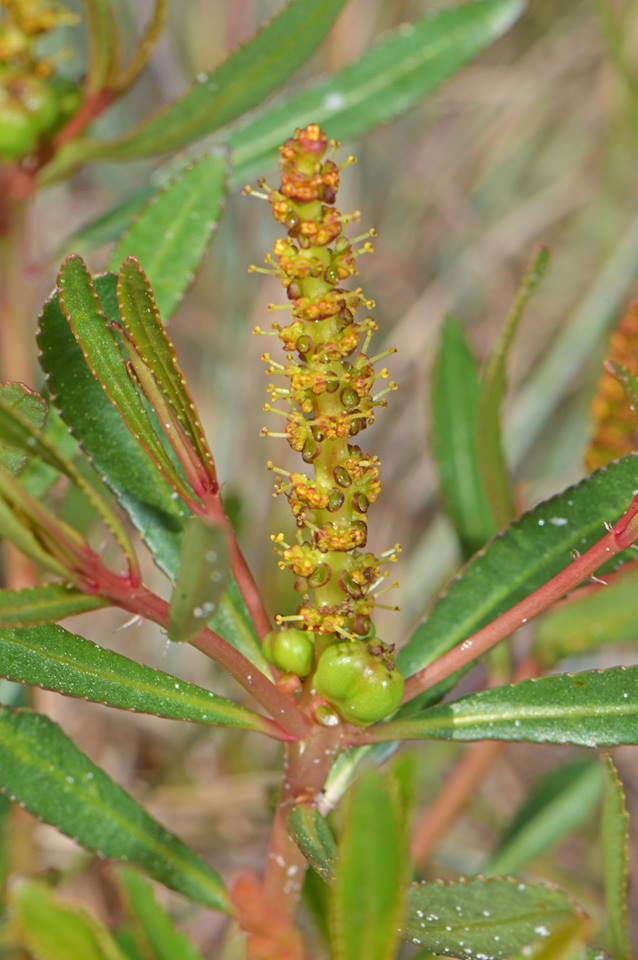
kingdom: Plantae
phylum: Tracheophyta
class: Magnoliopsida
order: Malpighiales
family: Euphorbiaceae
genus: Stillingia
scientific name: Stillingia sylvatica
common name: Queen's-delight
